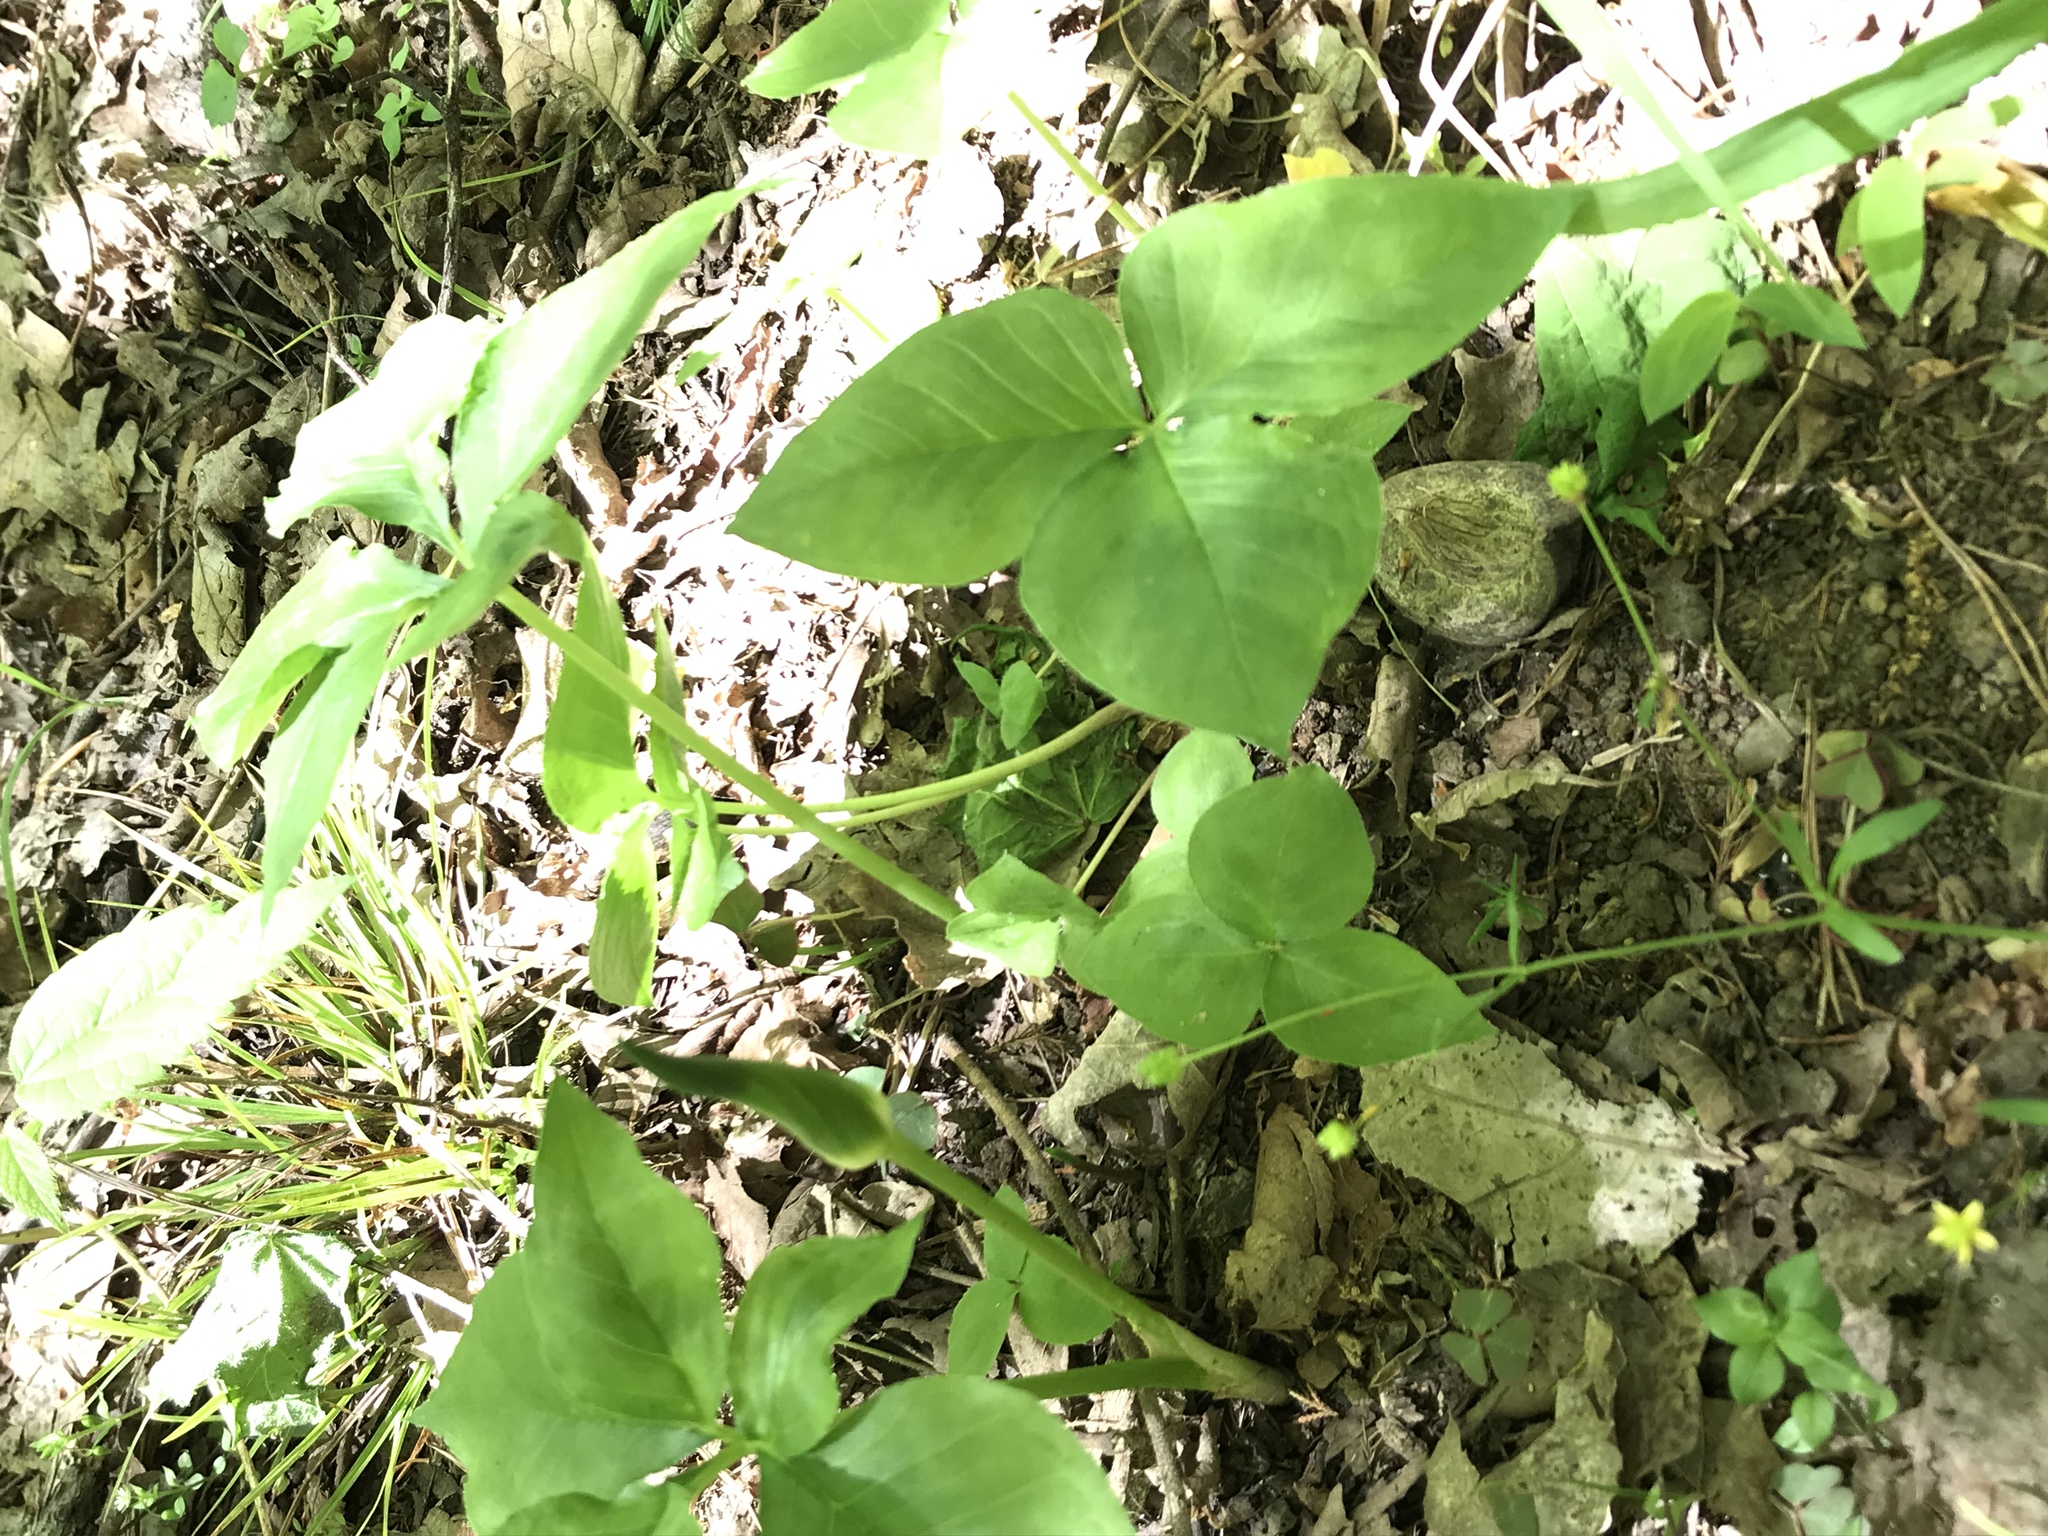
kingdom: Plantae
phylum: Tracheophyta
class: Liliopsida
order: Alismatales
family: Araceae
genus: Arisaema
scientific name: Arisaema quinatum
